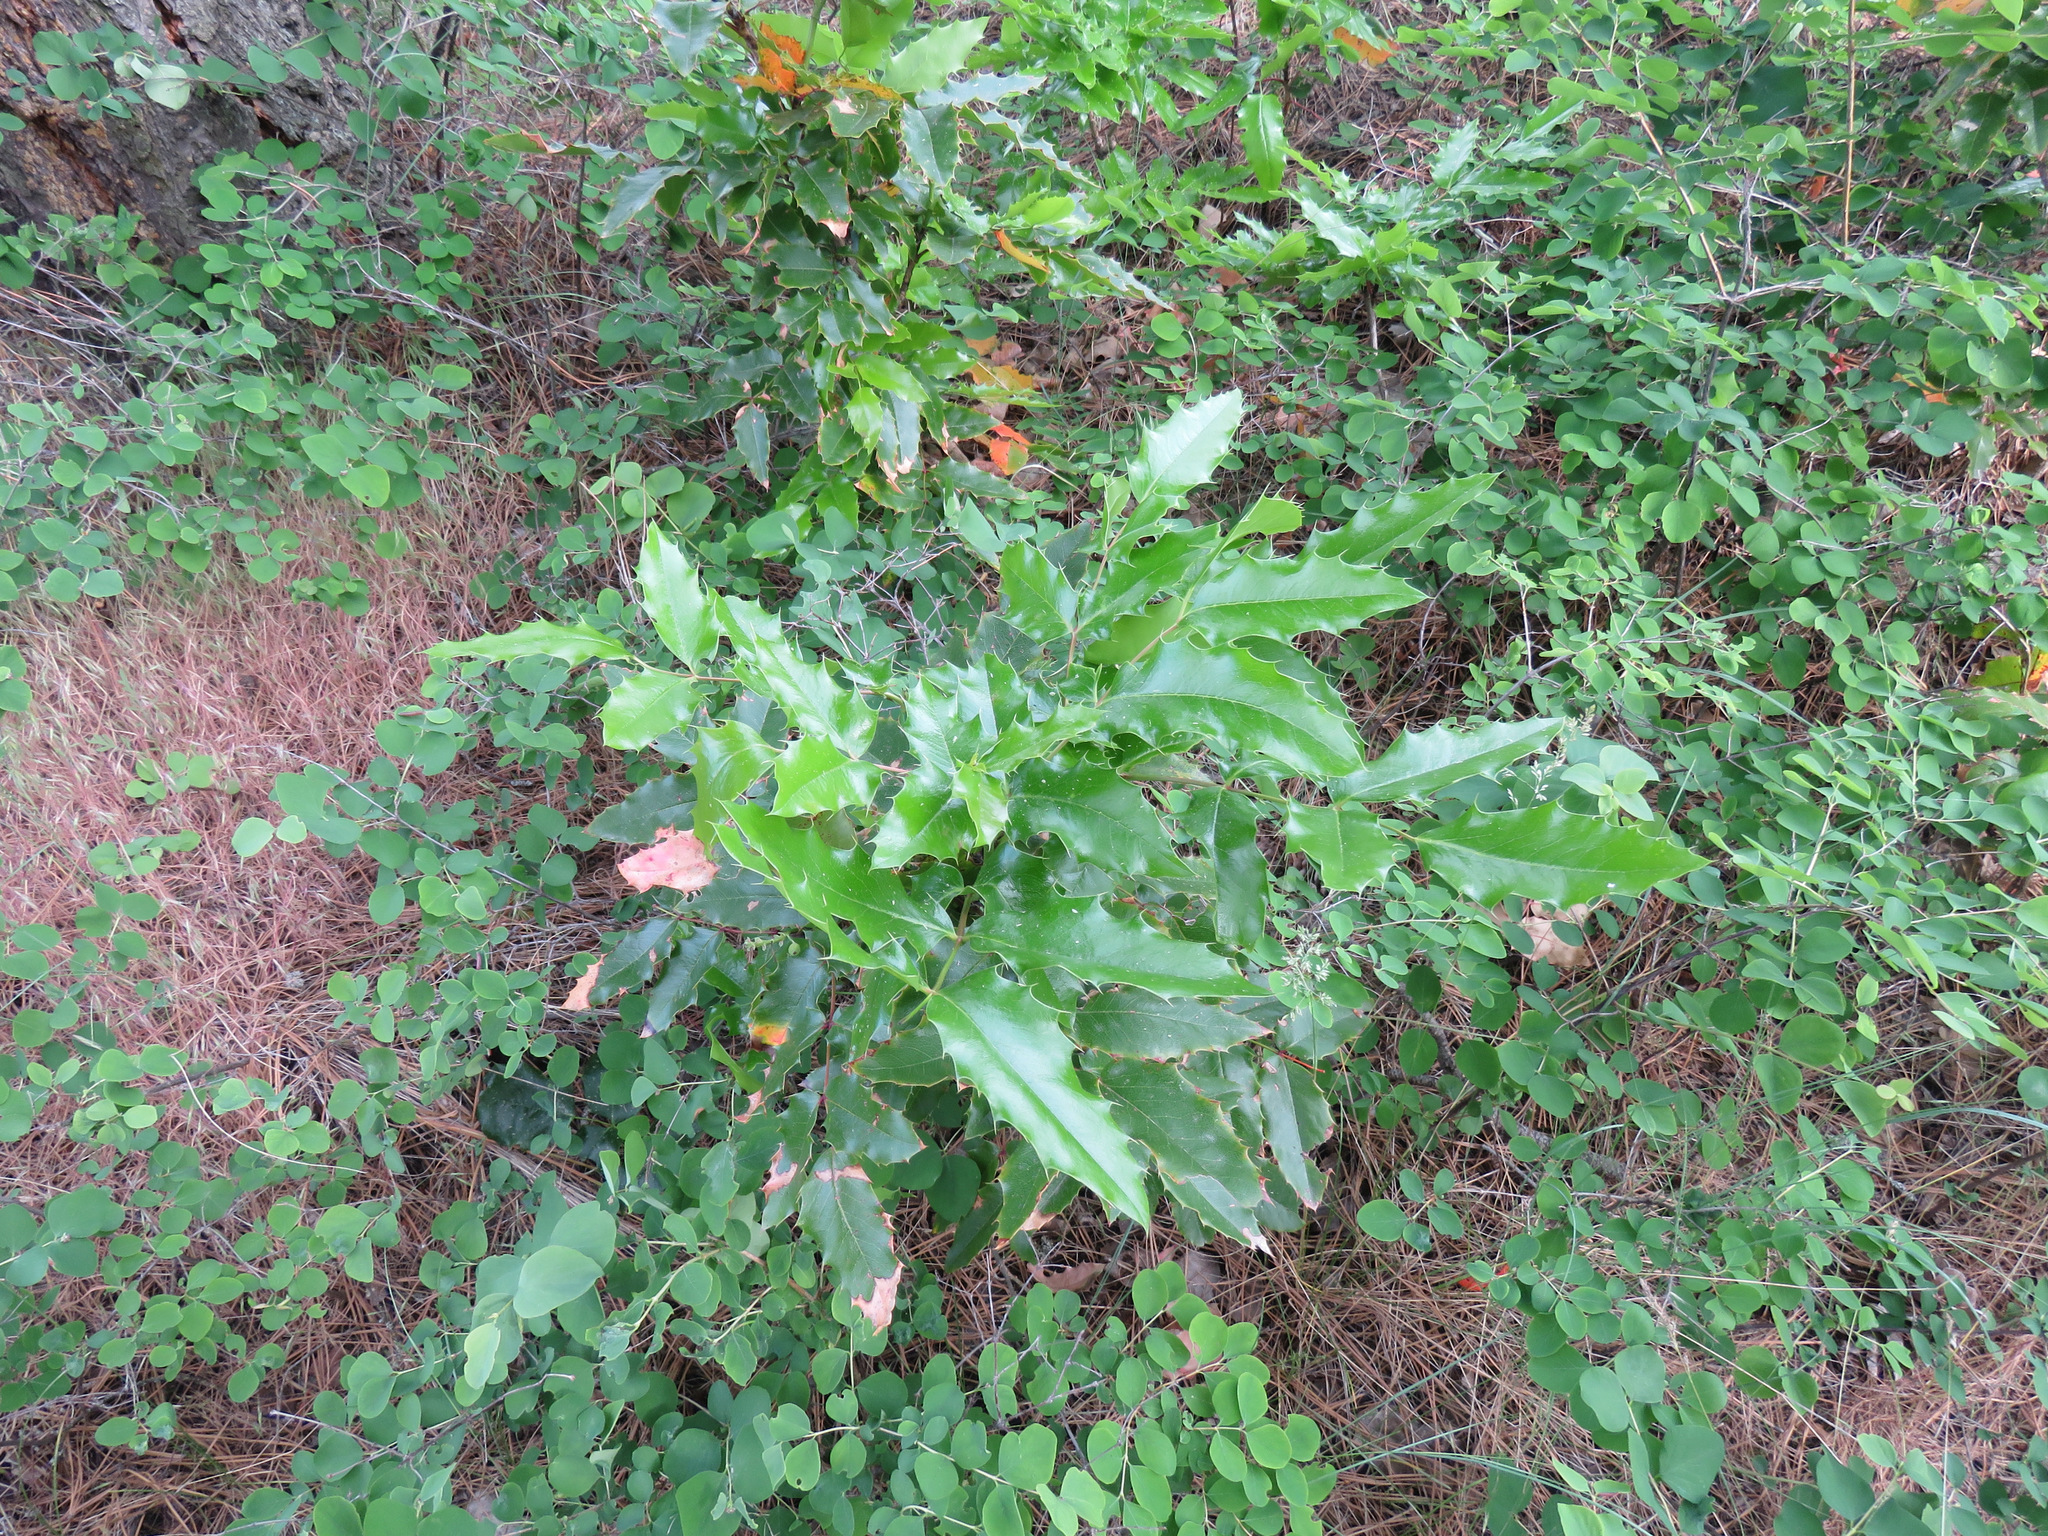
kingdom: Plantae
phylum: Tracheophyta
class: Magnoliopsida
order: Ranunculales
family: Berberidaceae
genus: Mahonia
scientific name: Mahonia aquifolium
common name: Oregon-grape
